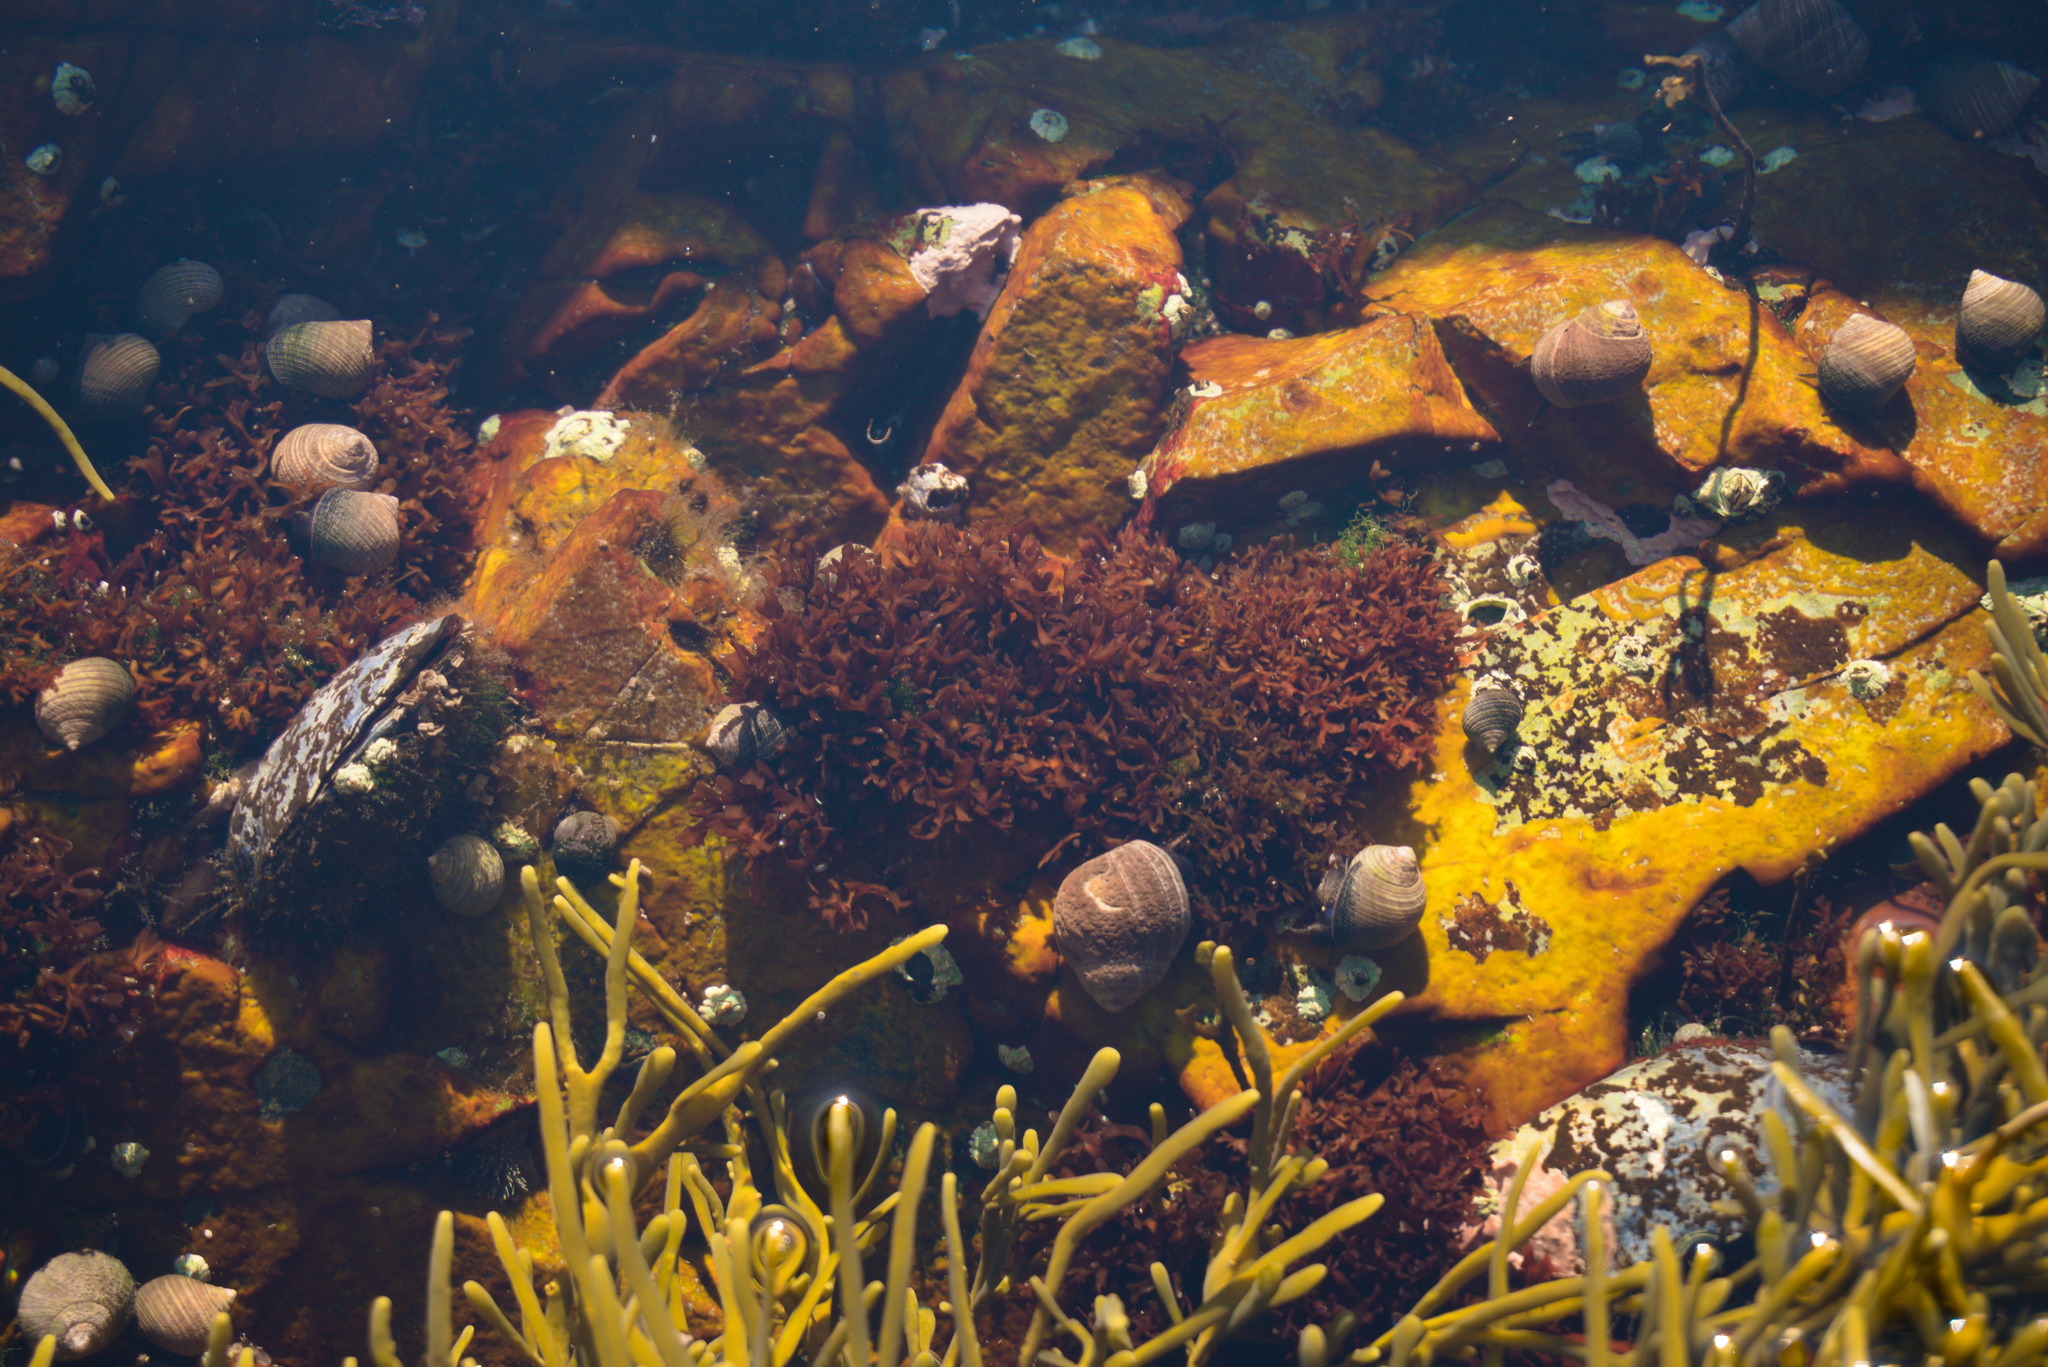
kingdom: Plantae
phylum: Rhodophyta
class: Florideophyceae
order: Gigartinales
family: Gigartinaceae
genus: Chondrus
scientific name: Chondrus crispus
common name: Carrageen
